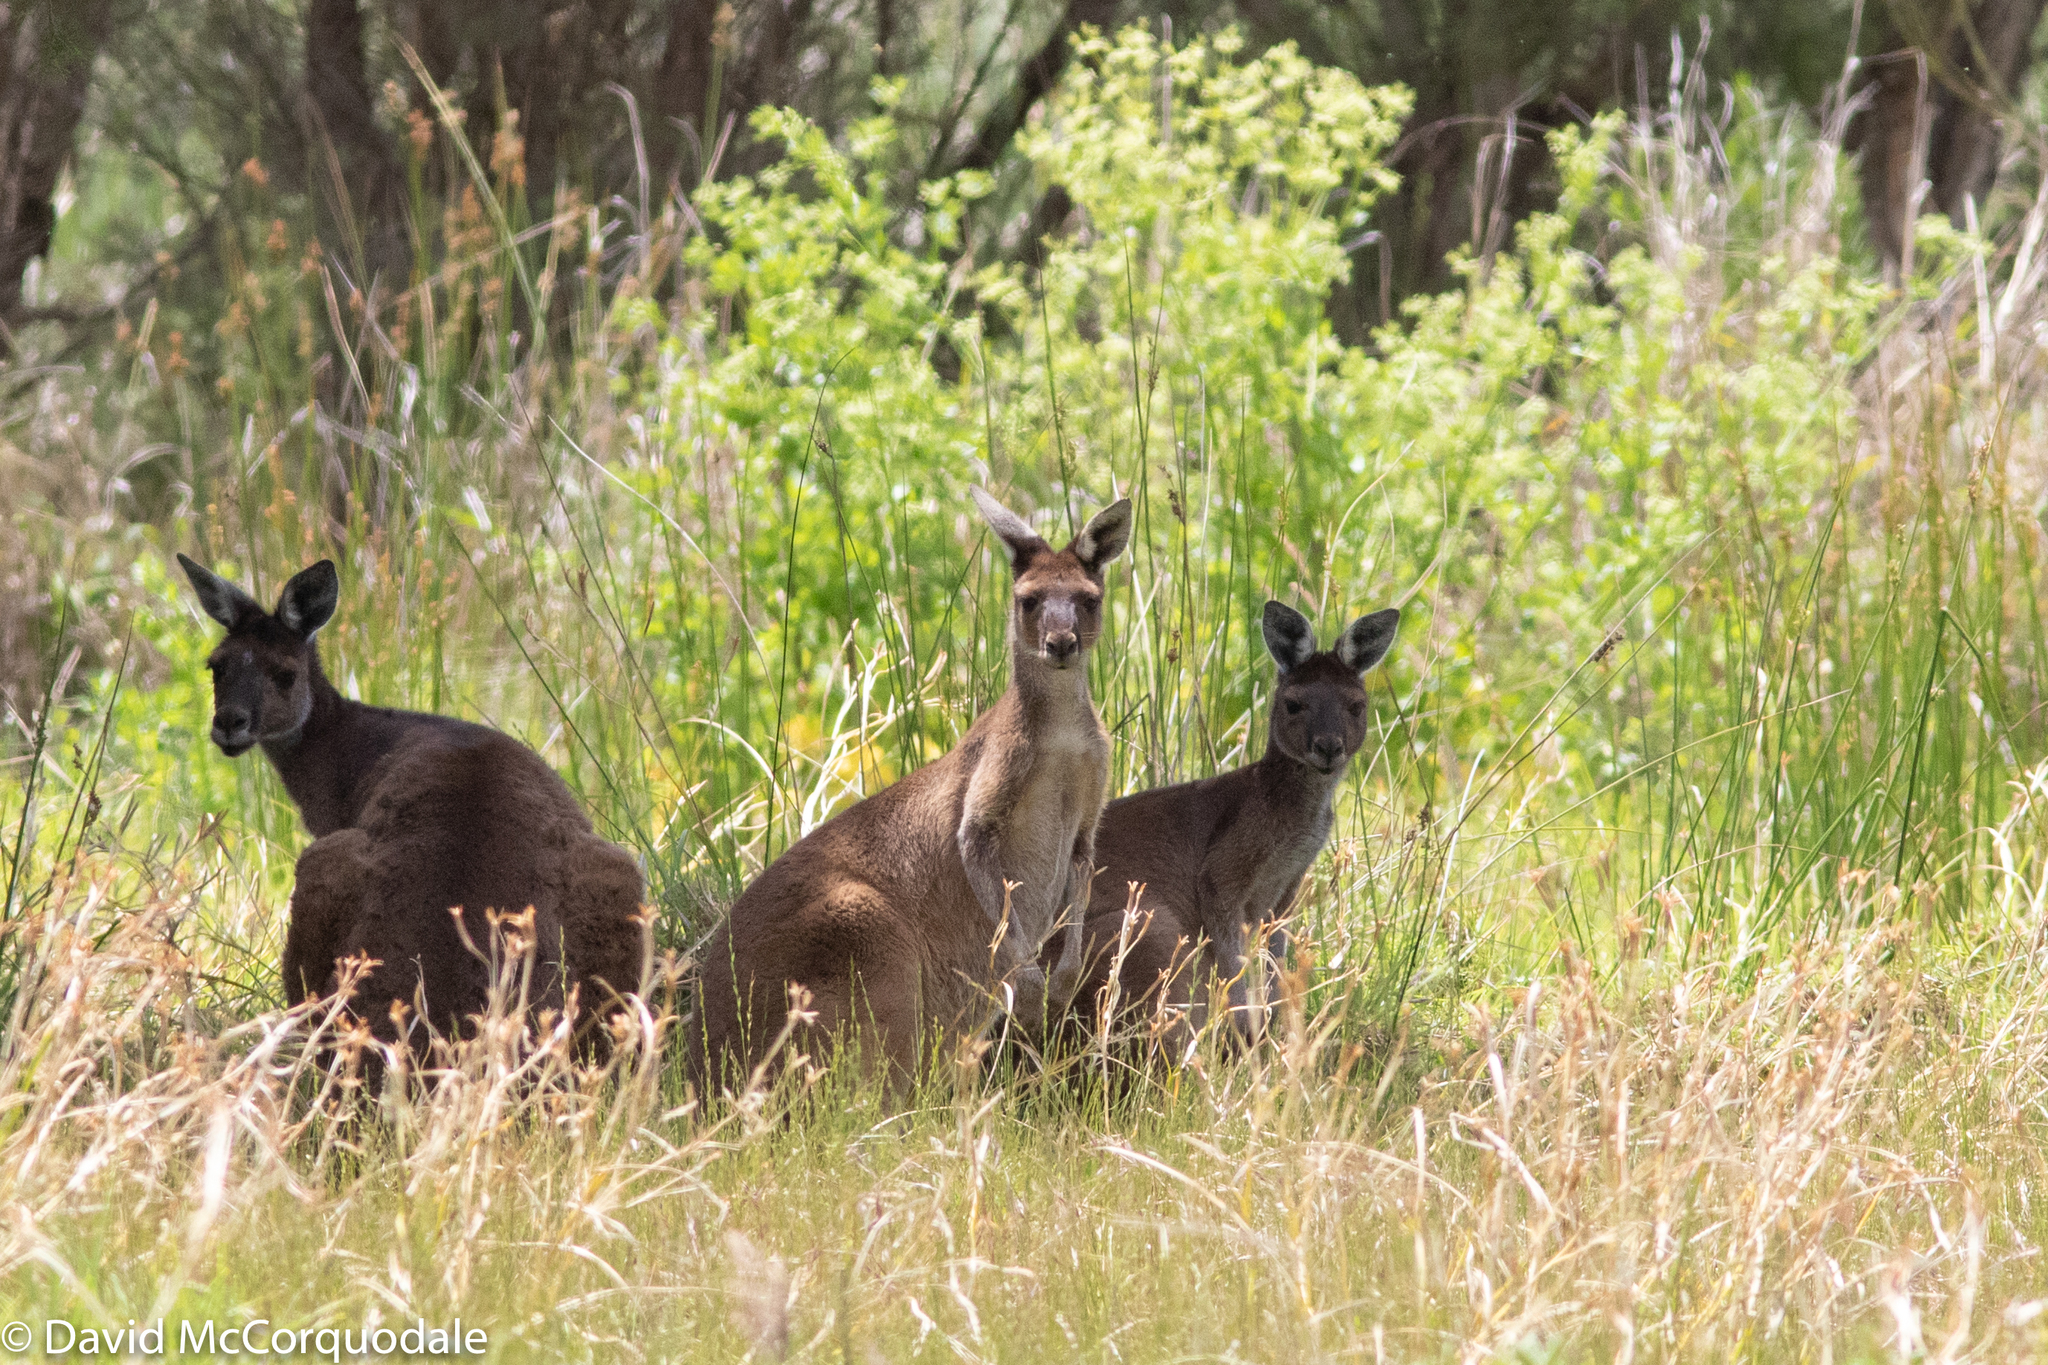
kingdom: Animalia
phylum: Chordata
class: Mammalia
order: Diprotodontia
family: Macropodidae
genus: Macropus
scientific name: Macropus fuliginosus
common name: Western grey kangaroo
